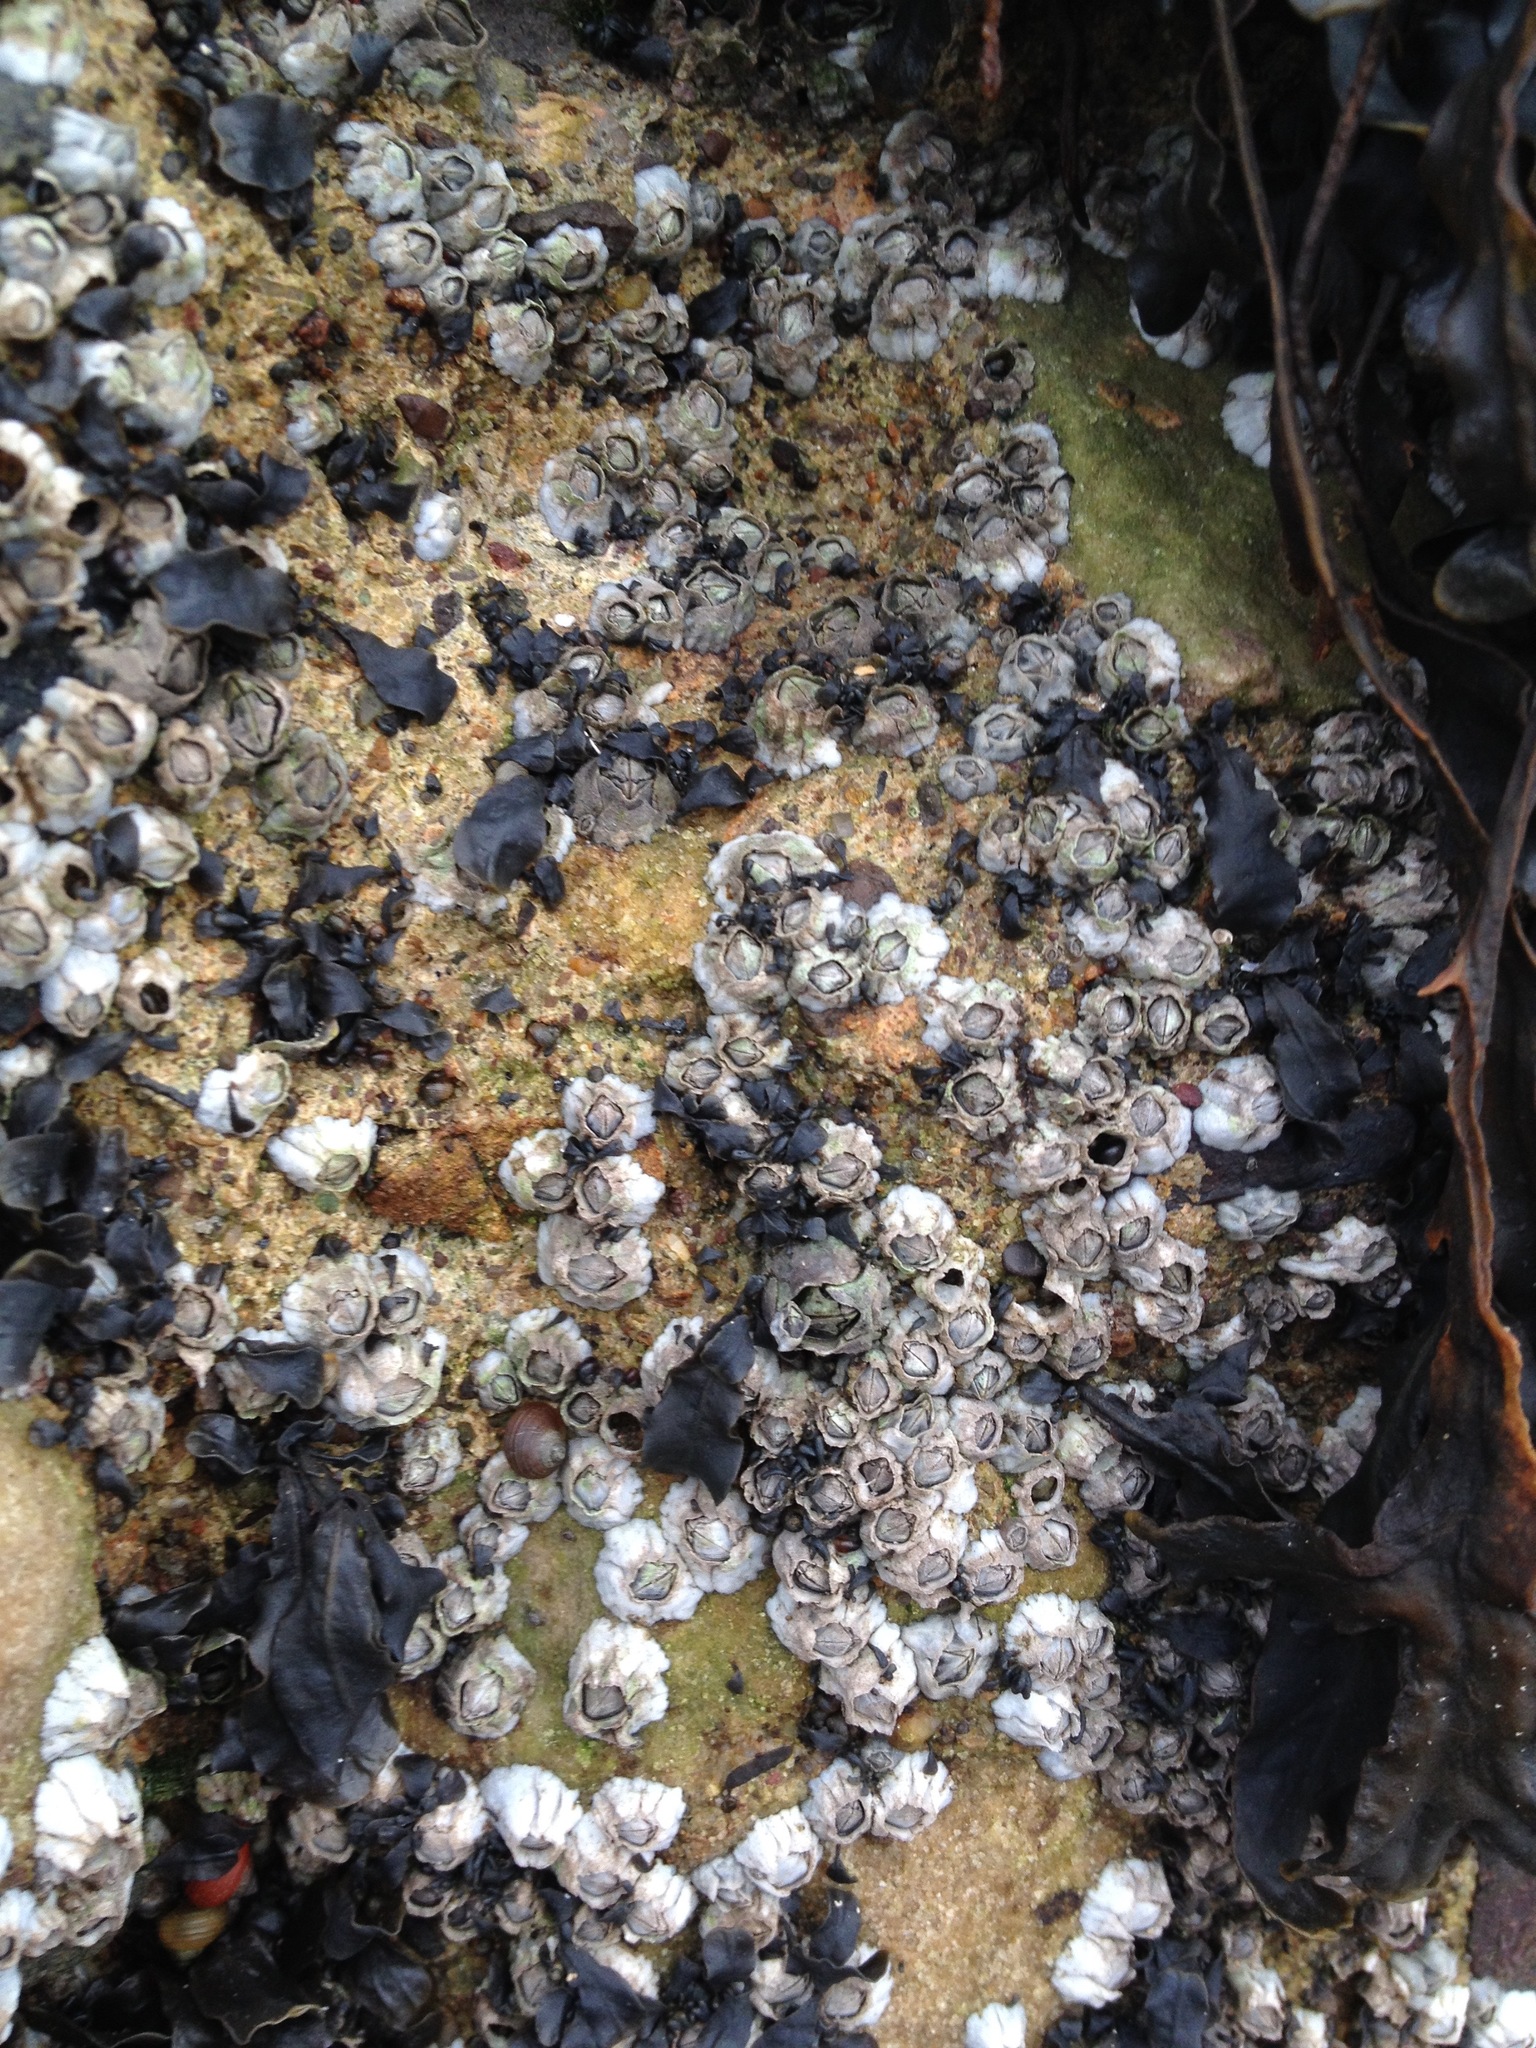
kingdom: Animalia
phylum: Arthropoda
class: Maxillopoda
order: Sessilia
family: Archaeobalanidae
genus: Semibalanus
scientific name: Semibalanus balanoides
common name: Acorn barnacle
